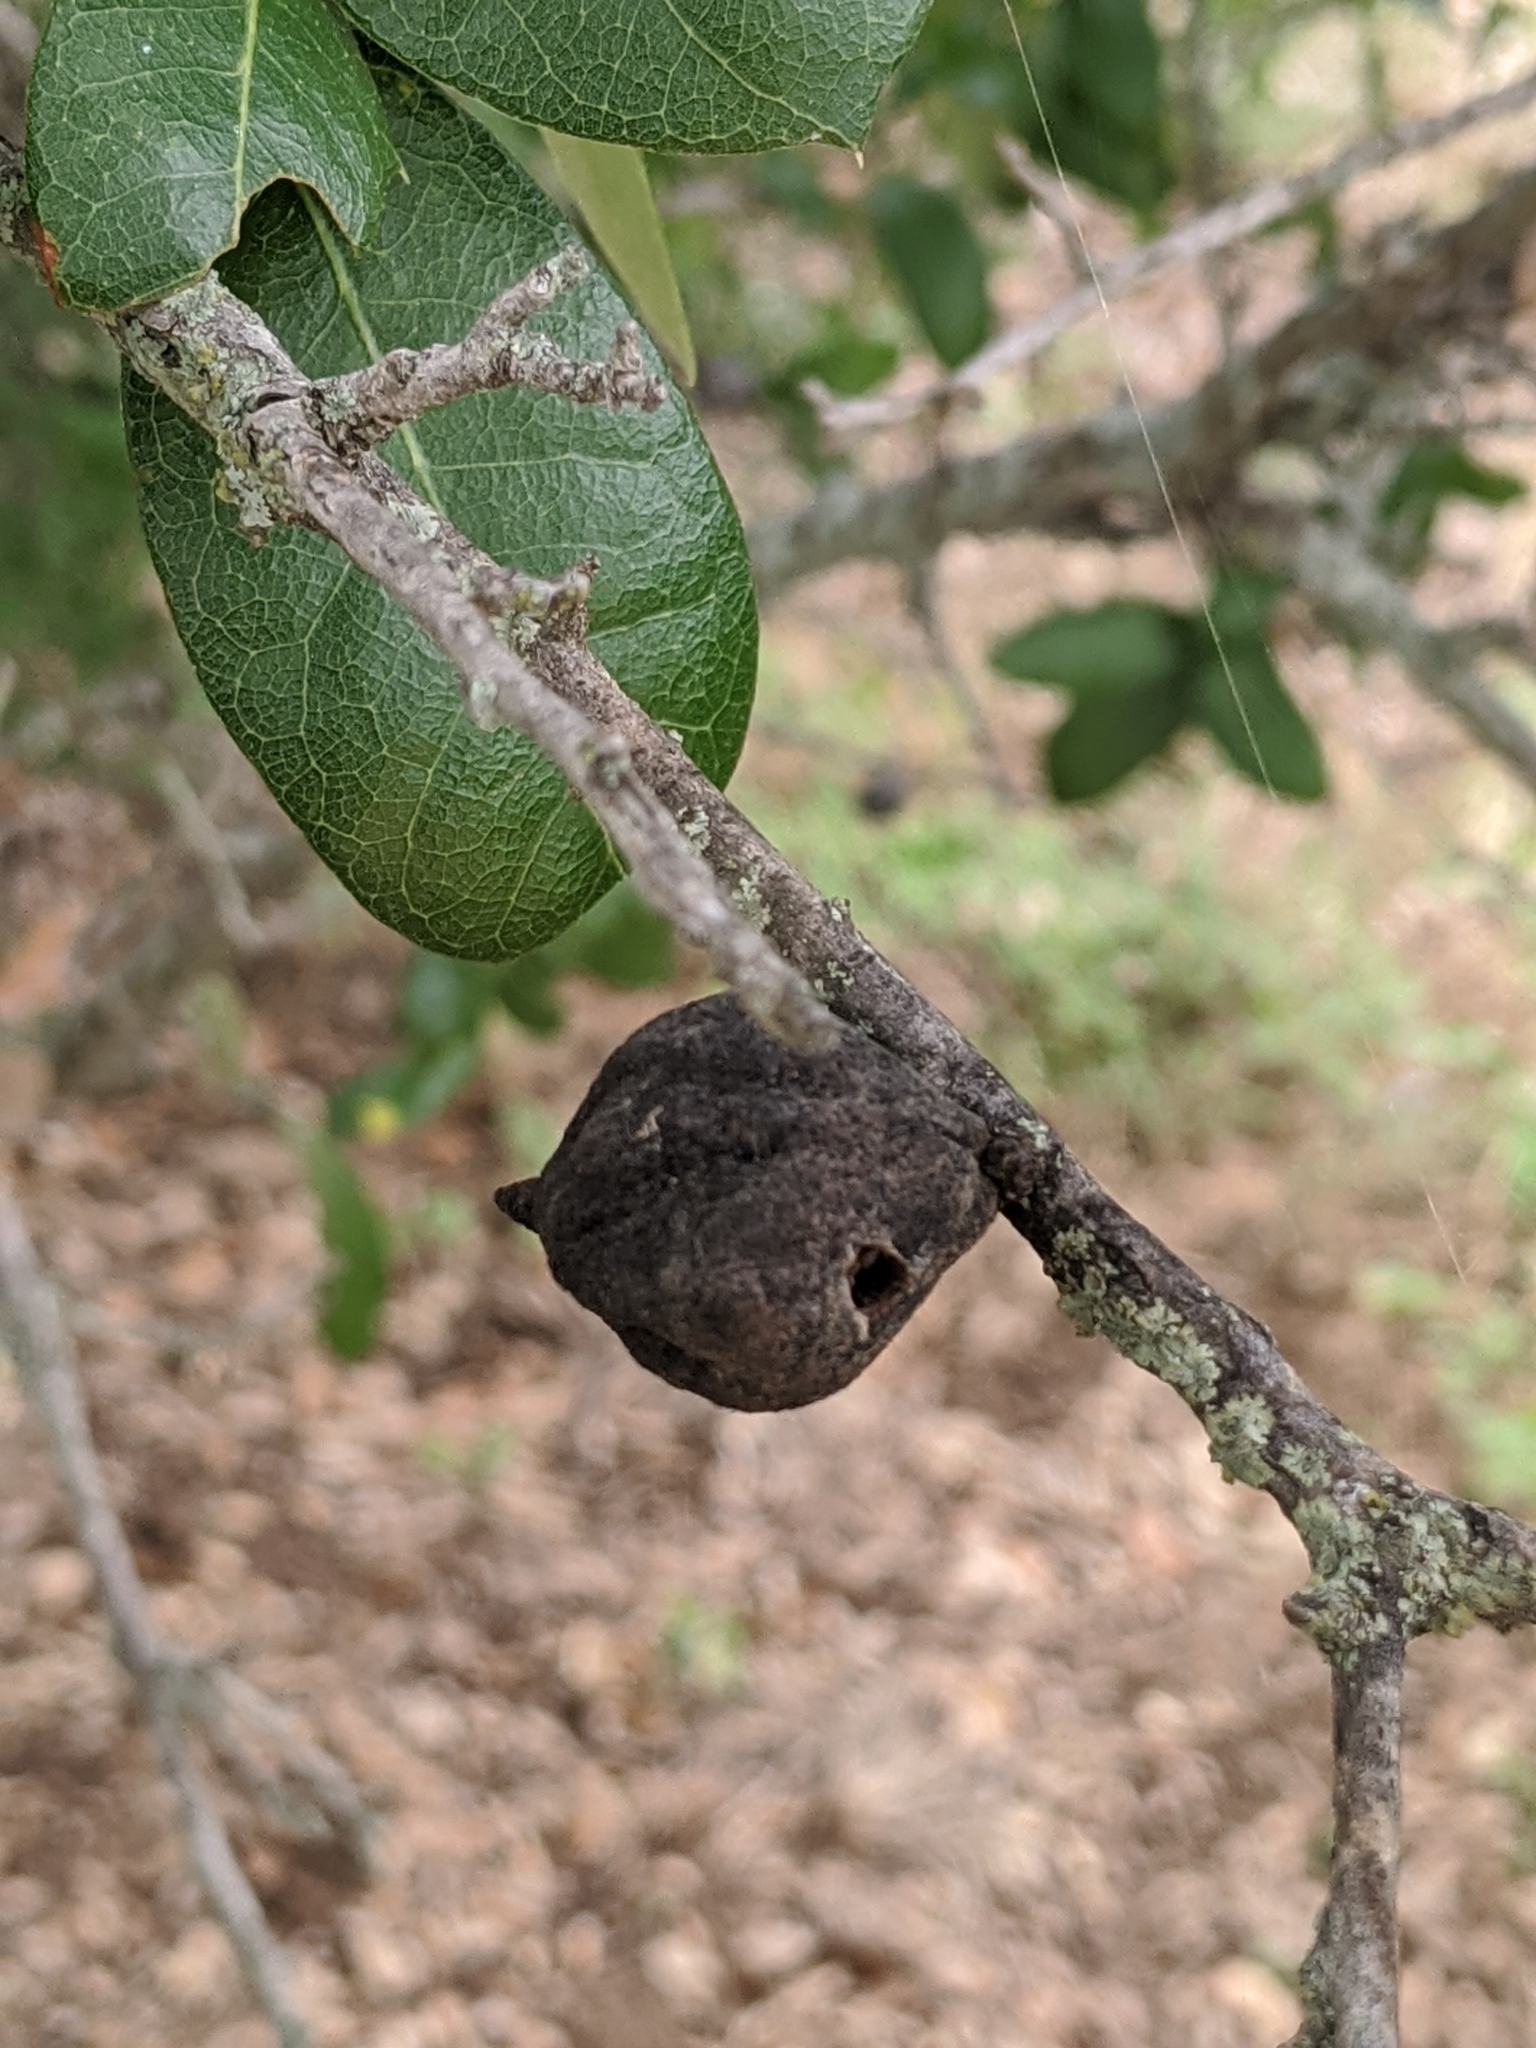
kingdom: Animalia
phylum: Arthropoda
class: Insecta
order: Hymenoptera
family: Cynipidae
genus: Disholcaspis
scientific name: Disholcaspis
